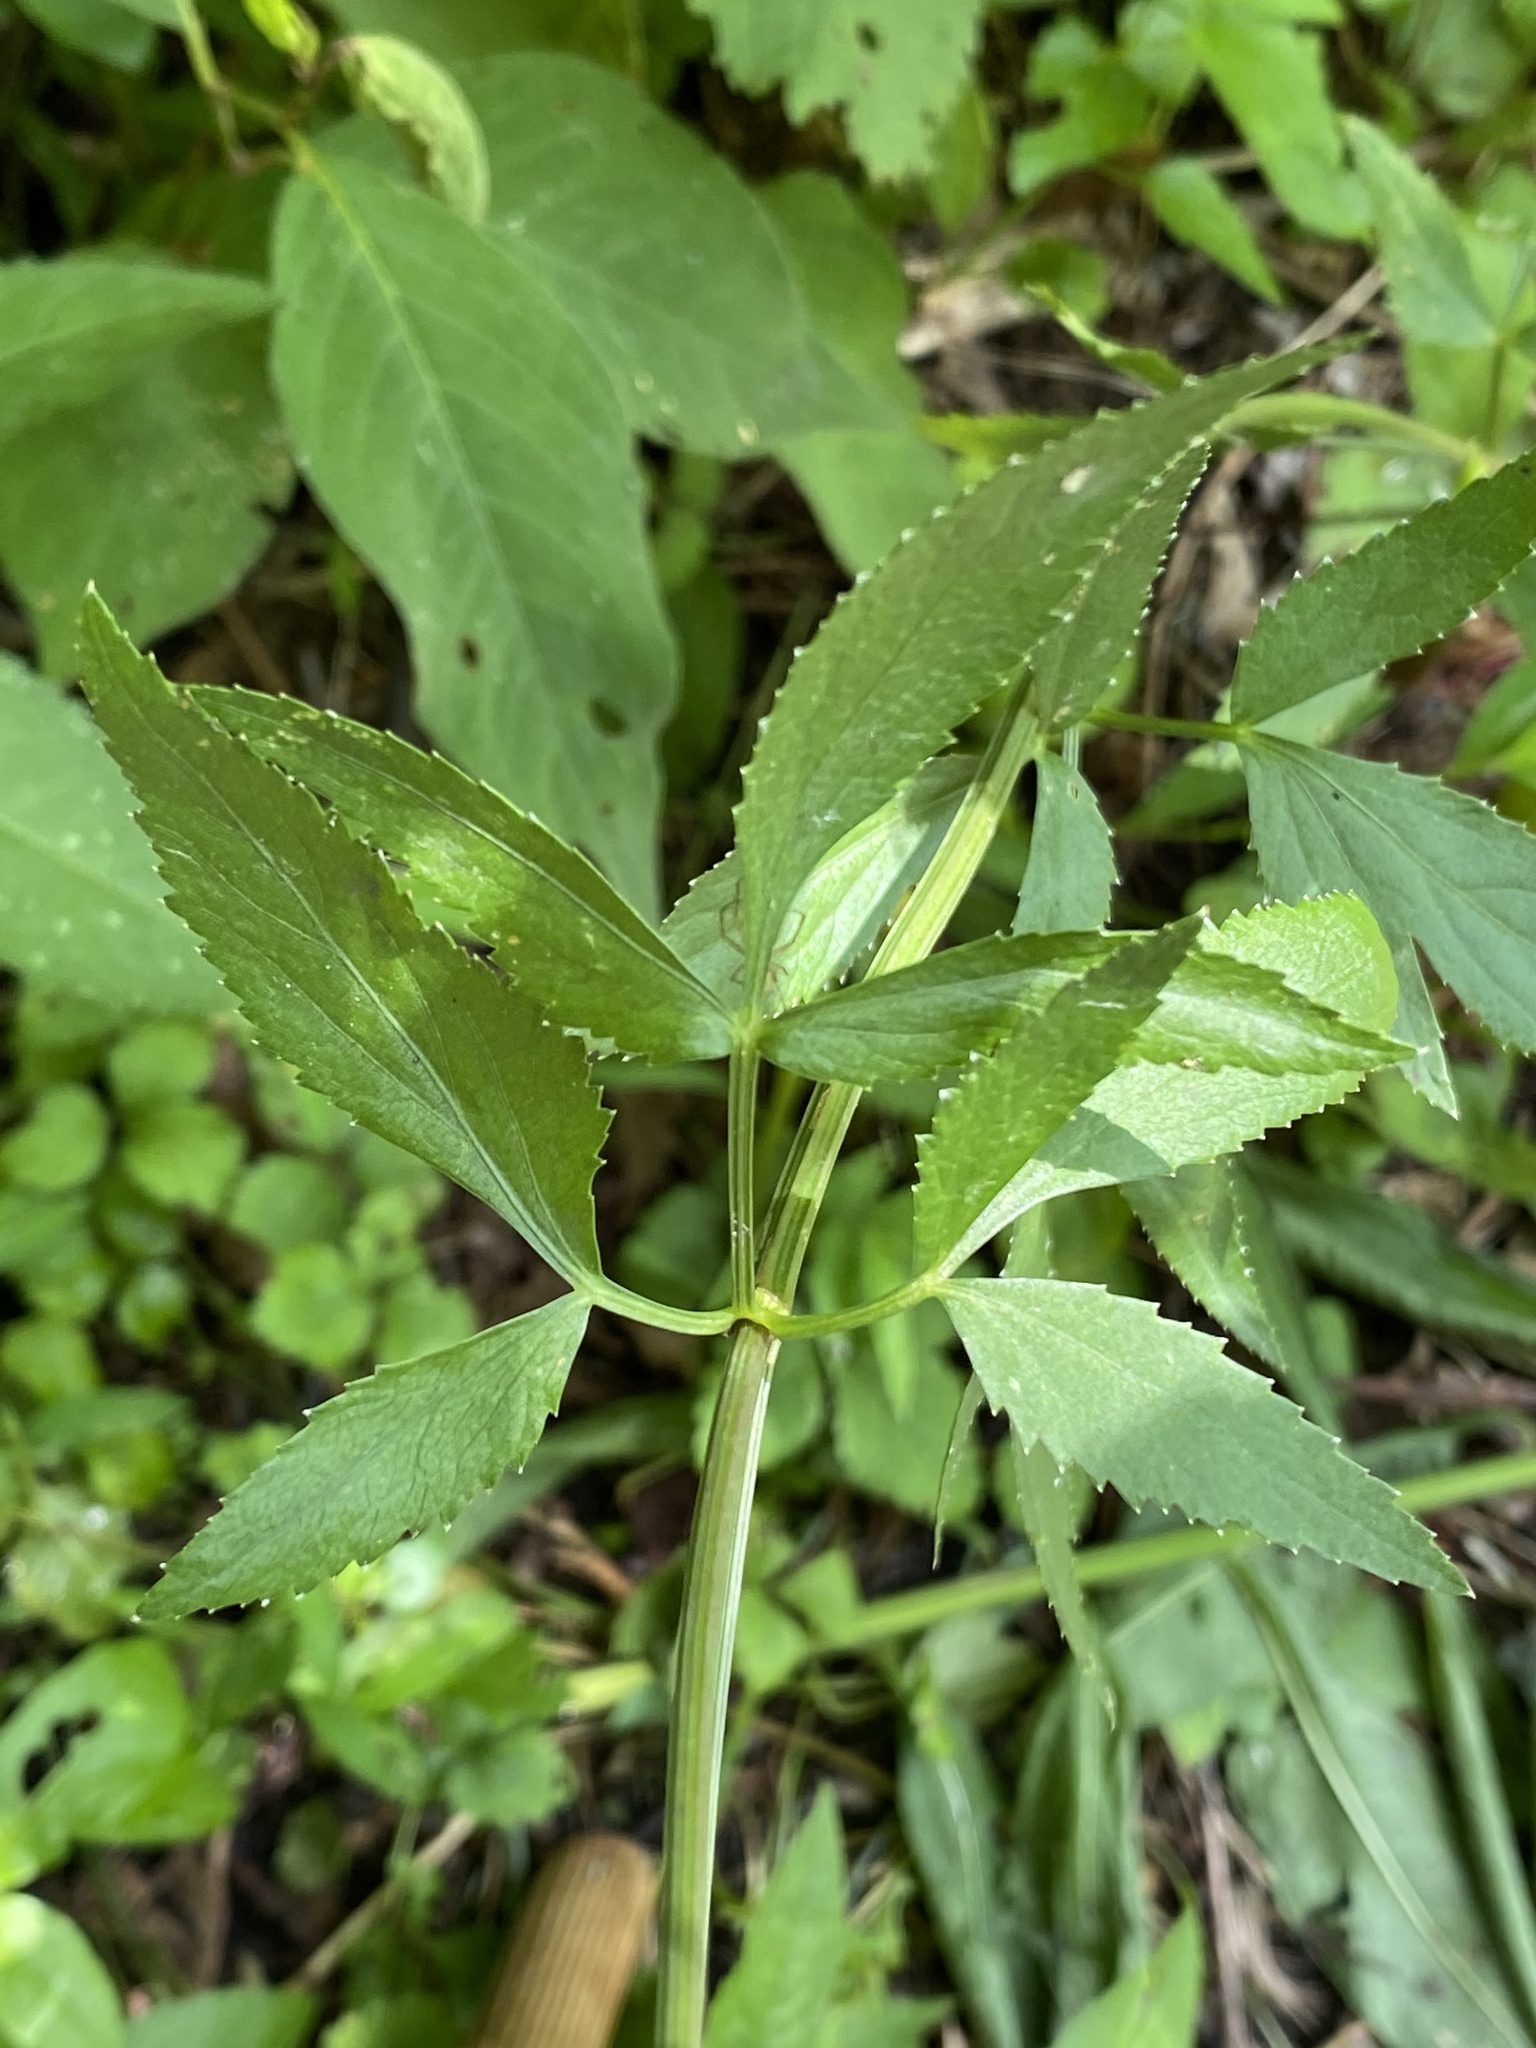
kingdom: Plantae
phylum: Tracheophyta
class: Magnoliopsida
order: Apiales
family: Apiaceae
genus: Zizia
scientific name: Zizia aurea
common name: Golden alexanders
